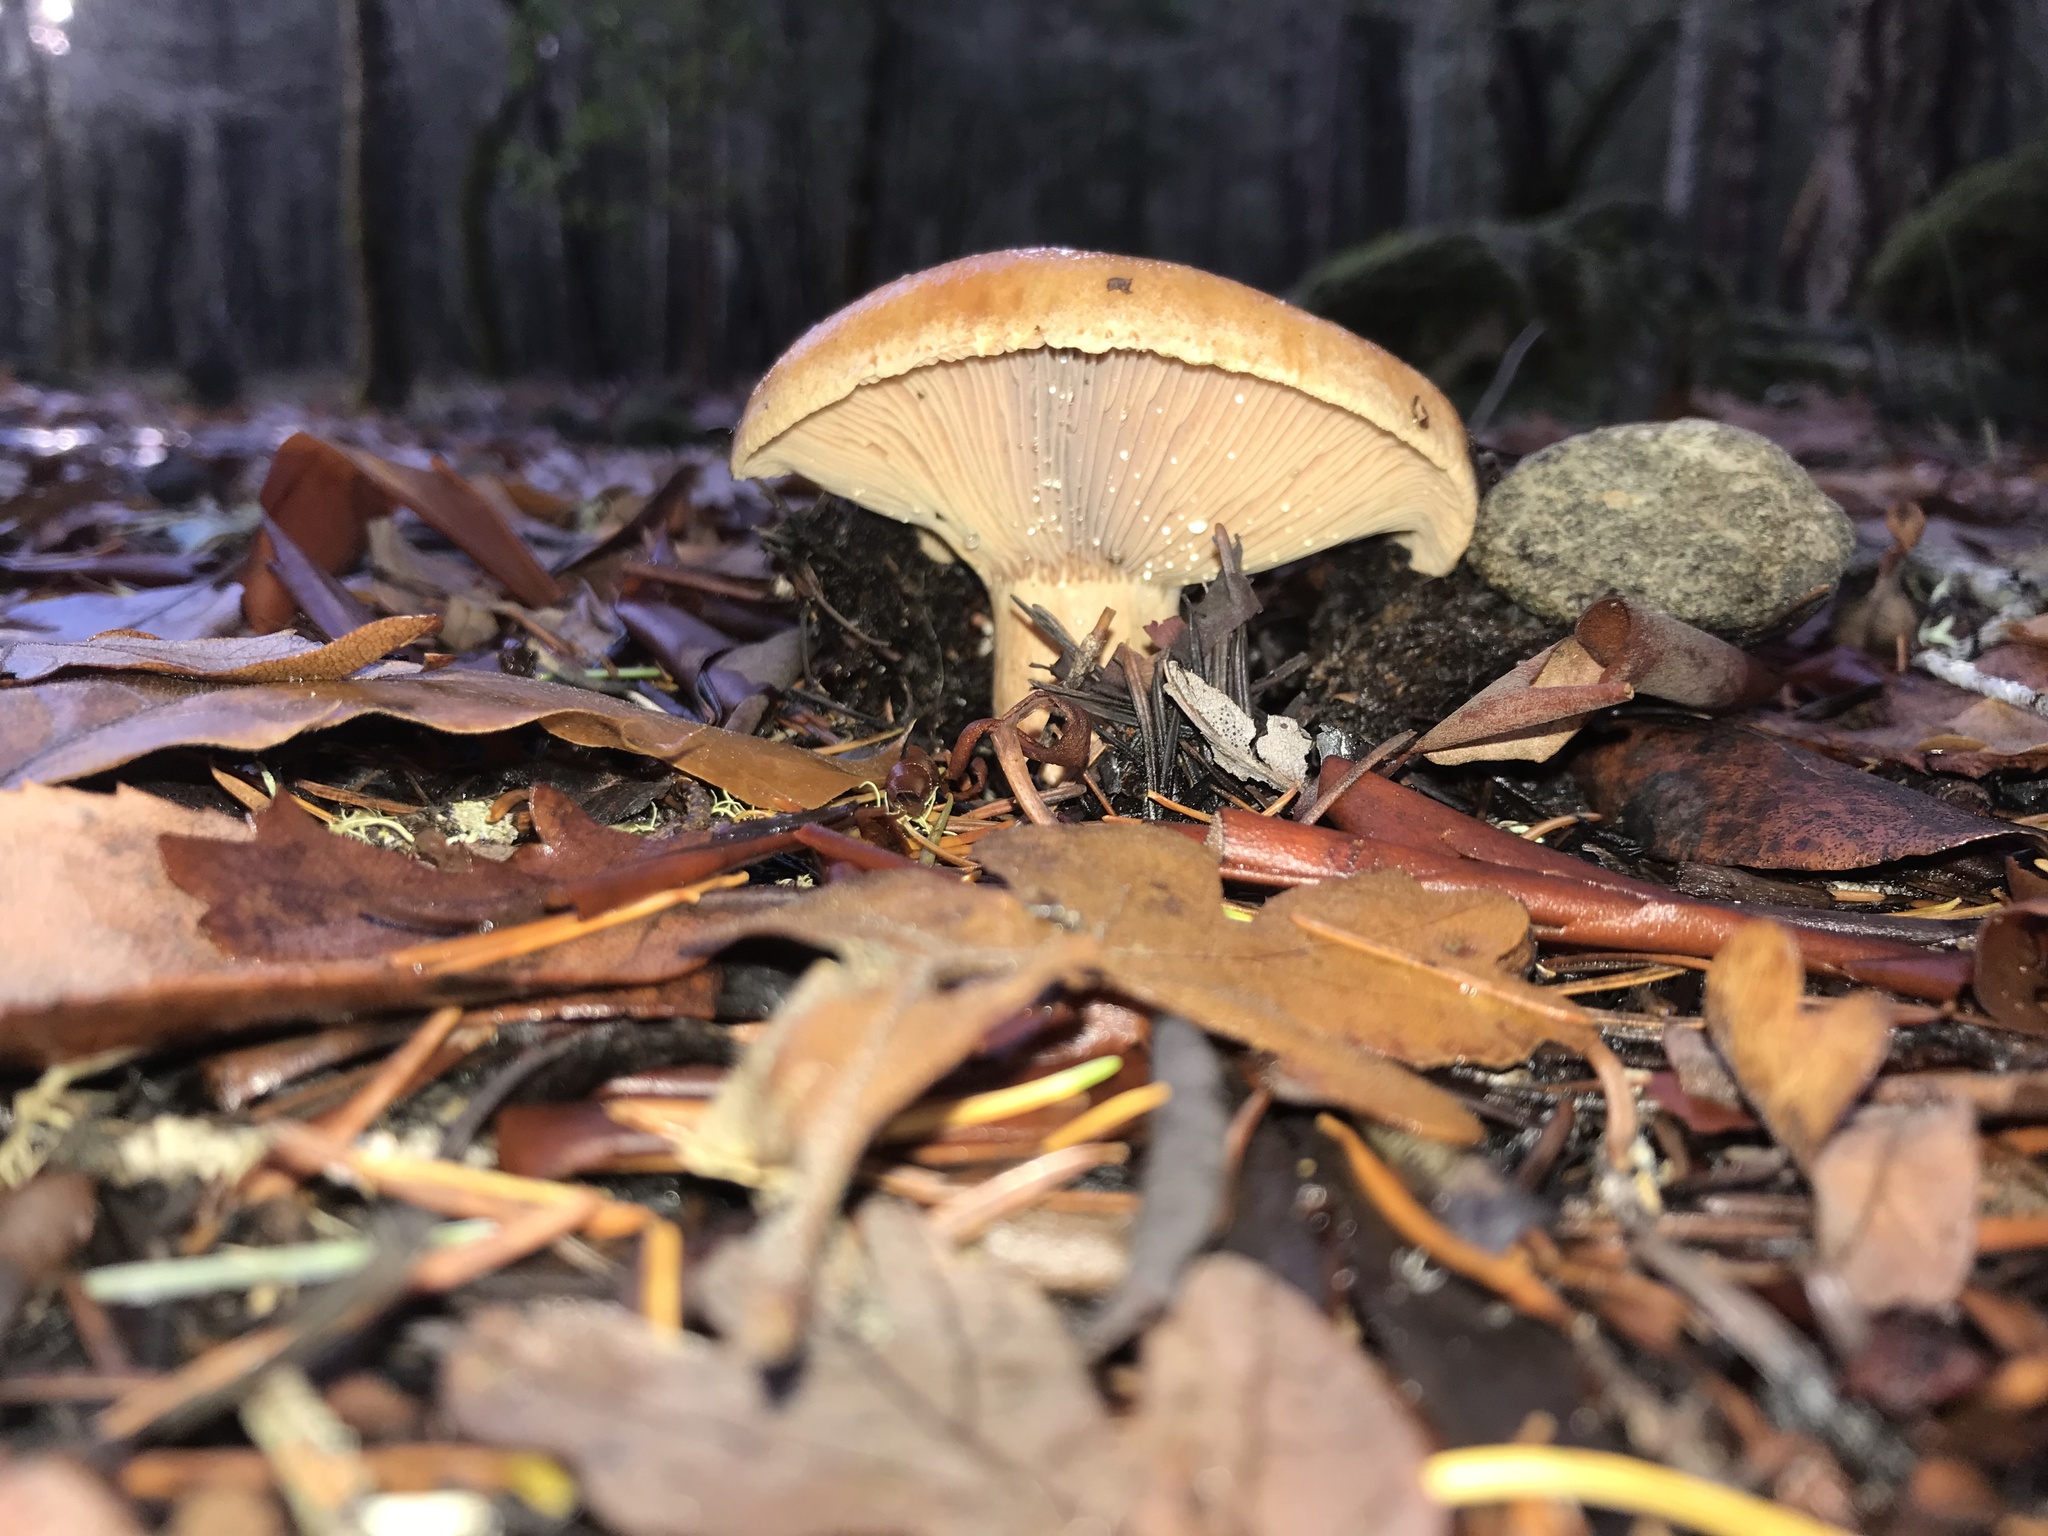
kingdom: Fungi
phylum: Basidiomycota
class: Agaricomycetes
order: Russulales
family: Russulaceae
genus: Lactarius
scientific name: Lactarius rubrilacteus
